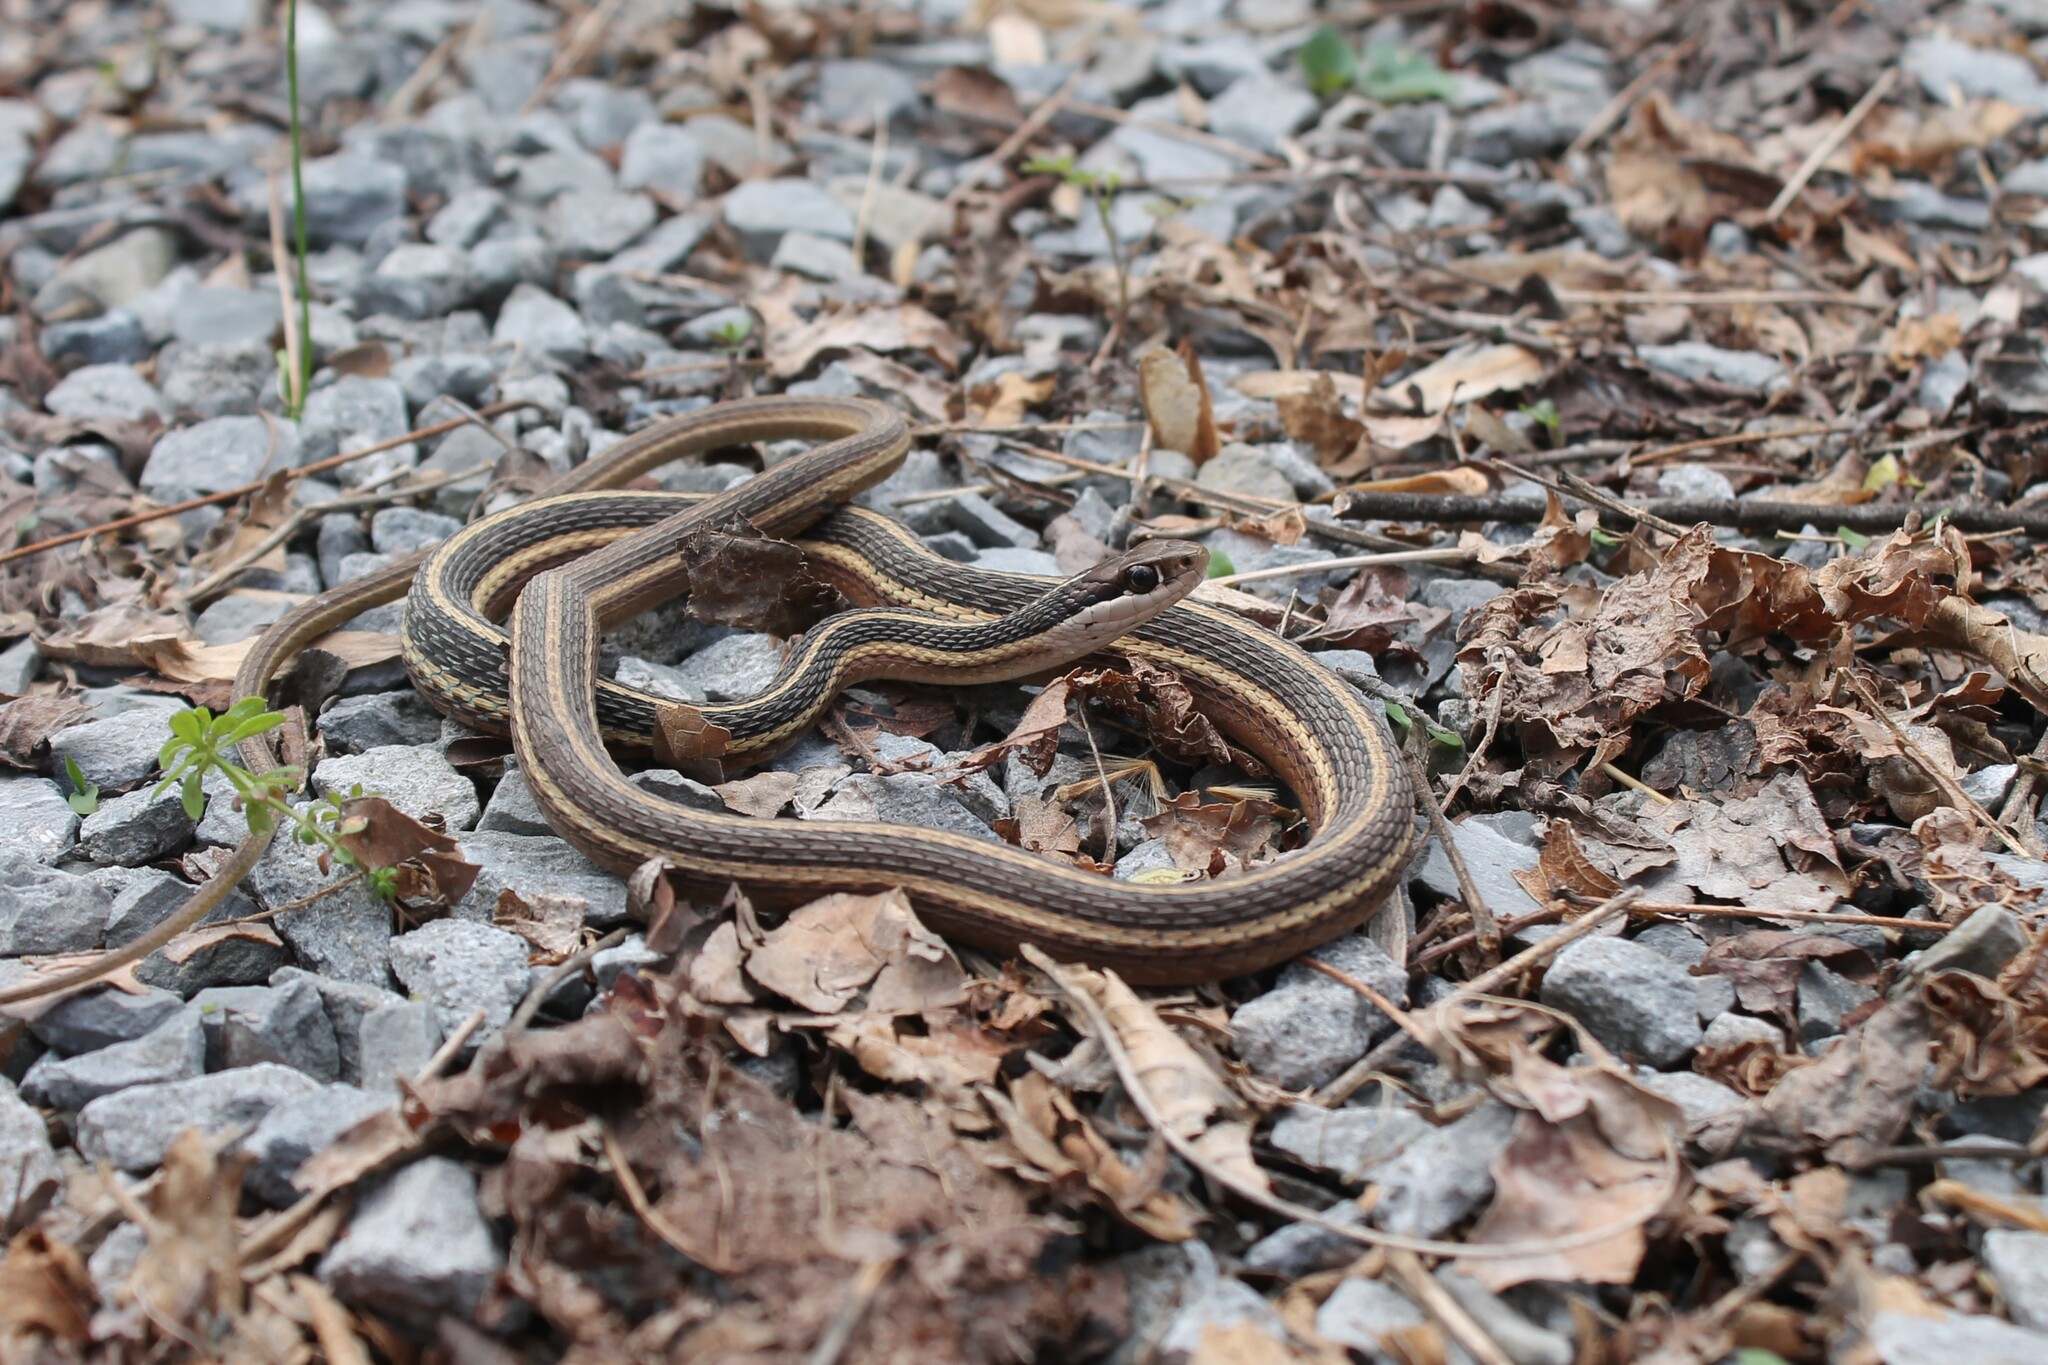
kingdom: Animalia
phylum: Chordata
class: Squamata
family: Colubridae
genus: Thamnophis
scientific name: Thamnophis saurita
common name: Eastern ribbonsnake
